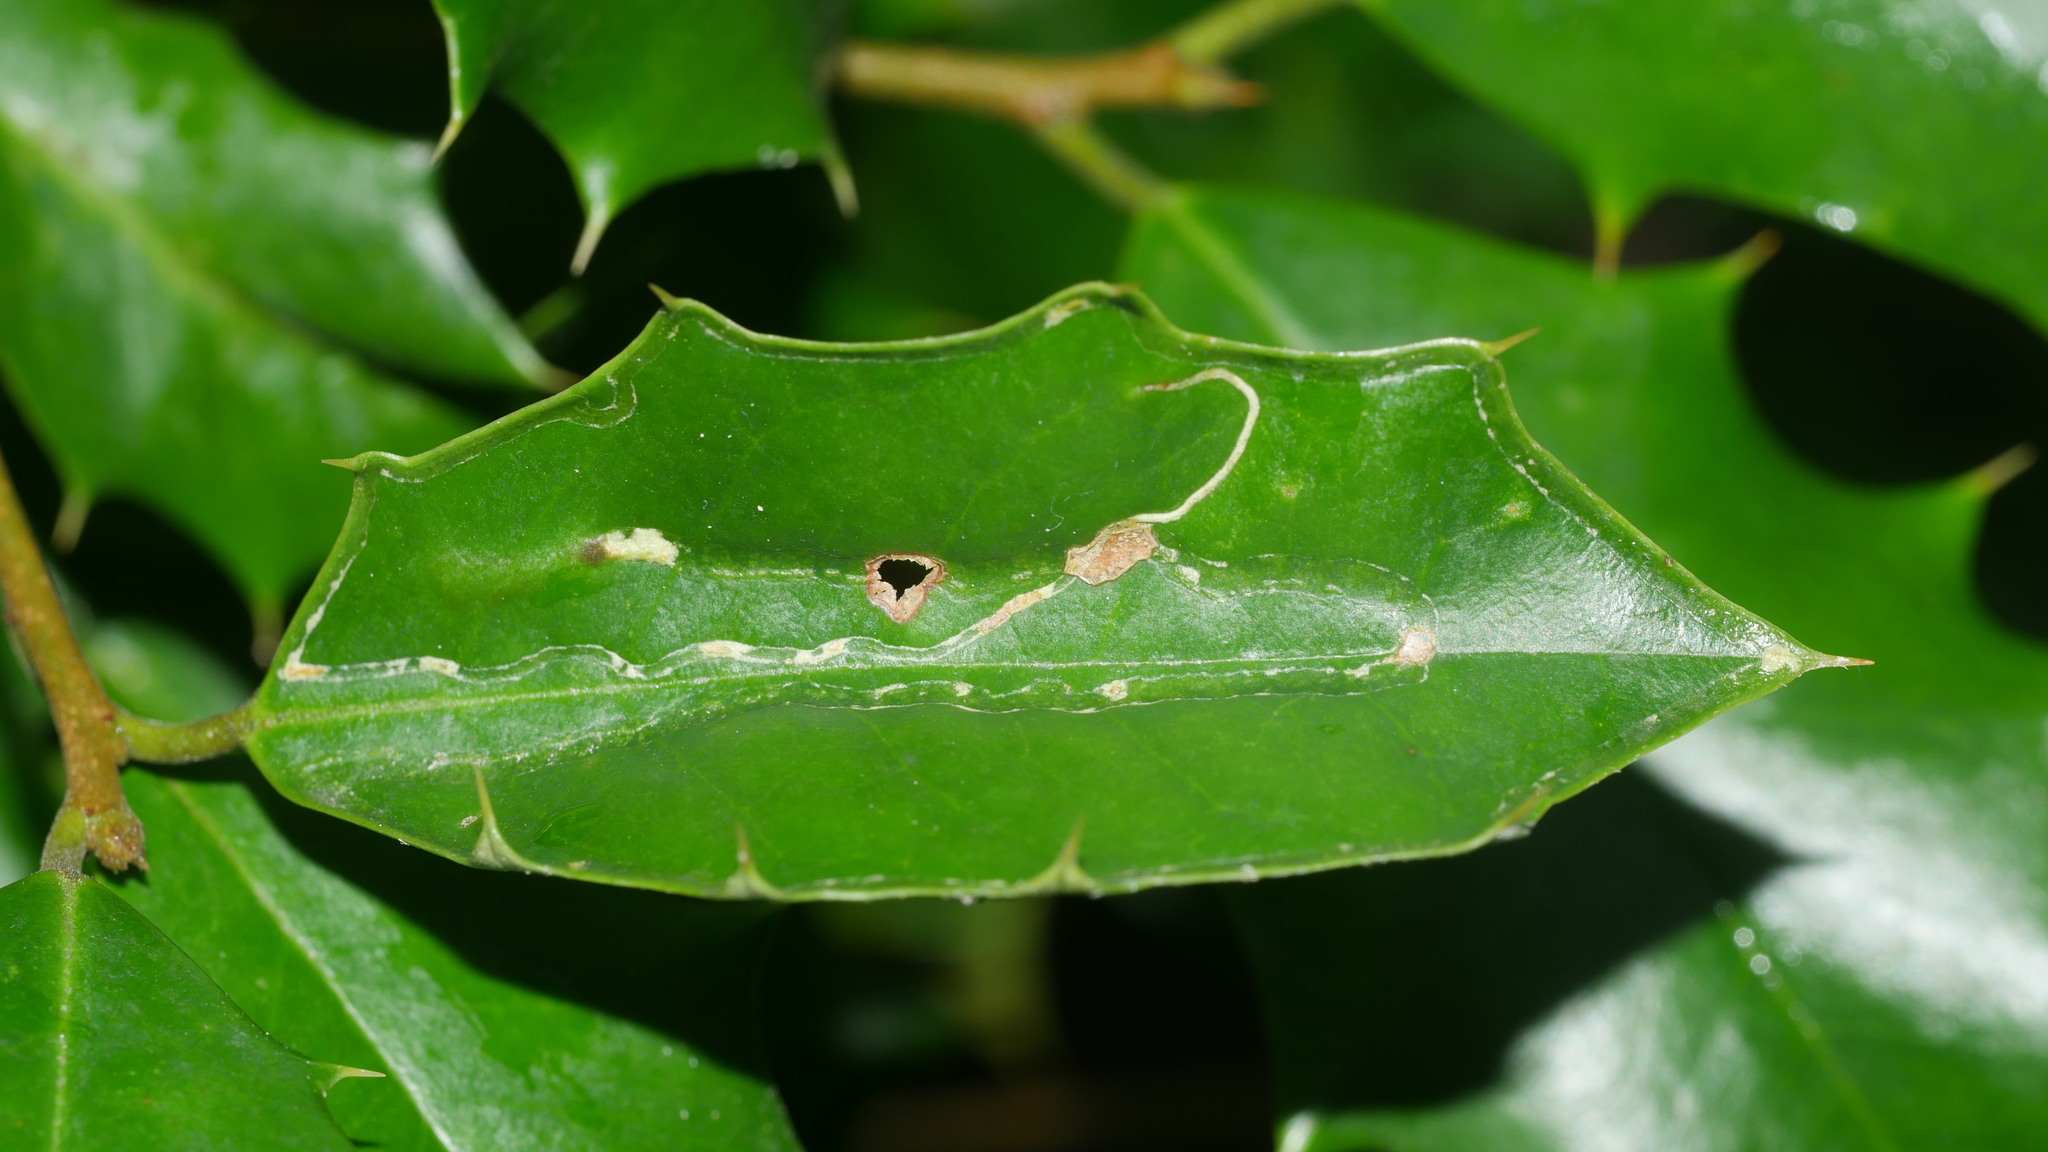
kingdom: Animalia
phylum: Arthropoda
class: Insecta
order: Diptera
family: Agromyzidae
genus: Phytomyza
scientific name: Phytomyza opacae
